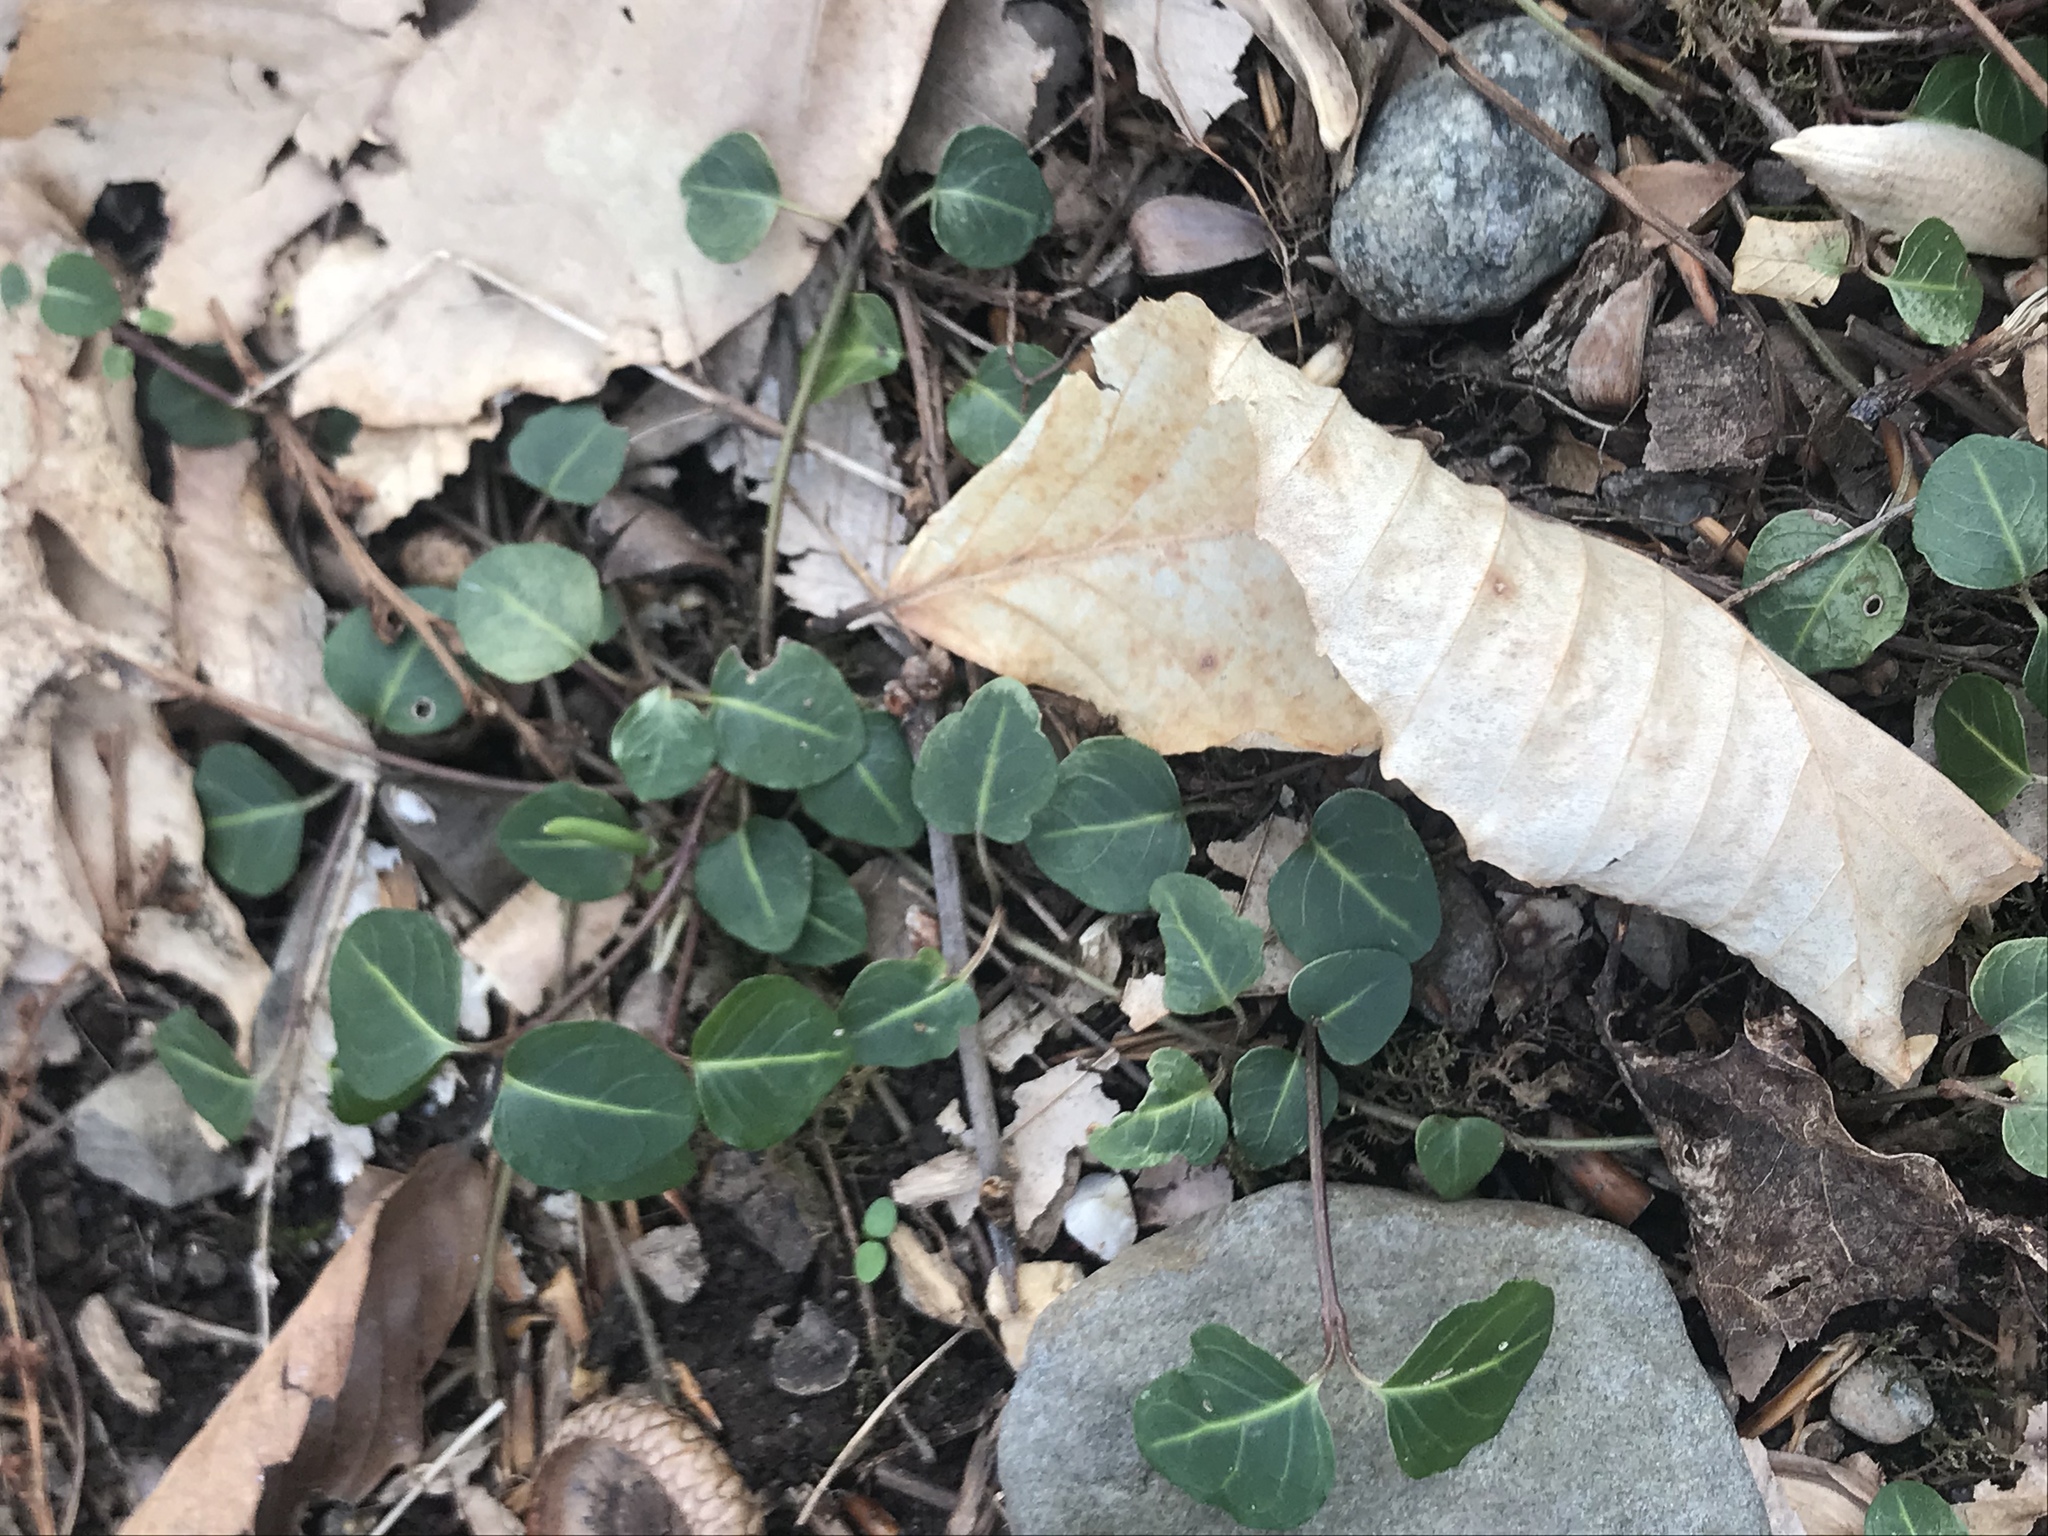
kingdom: Plantae
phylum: Tracheophyta
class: Magnoliopsida
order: Gentianales
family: Rubiaceae
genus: Mitchella
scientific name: Mitchella repens
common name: Partridge-berry
